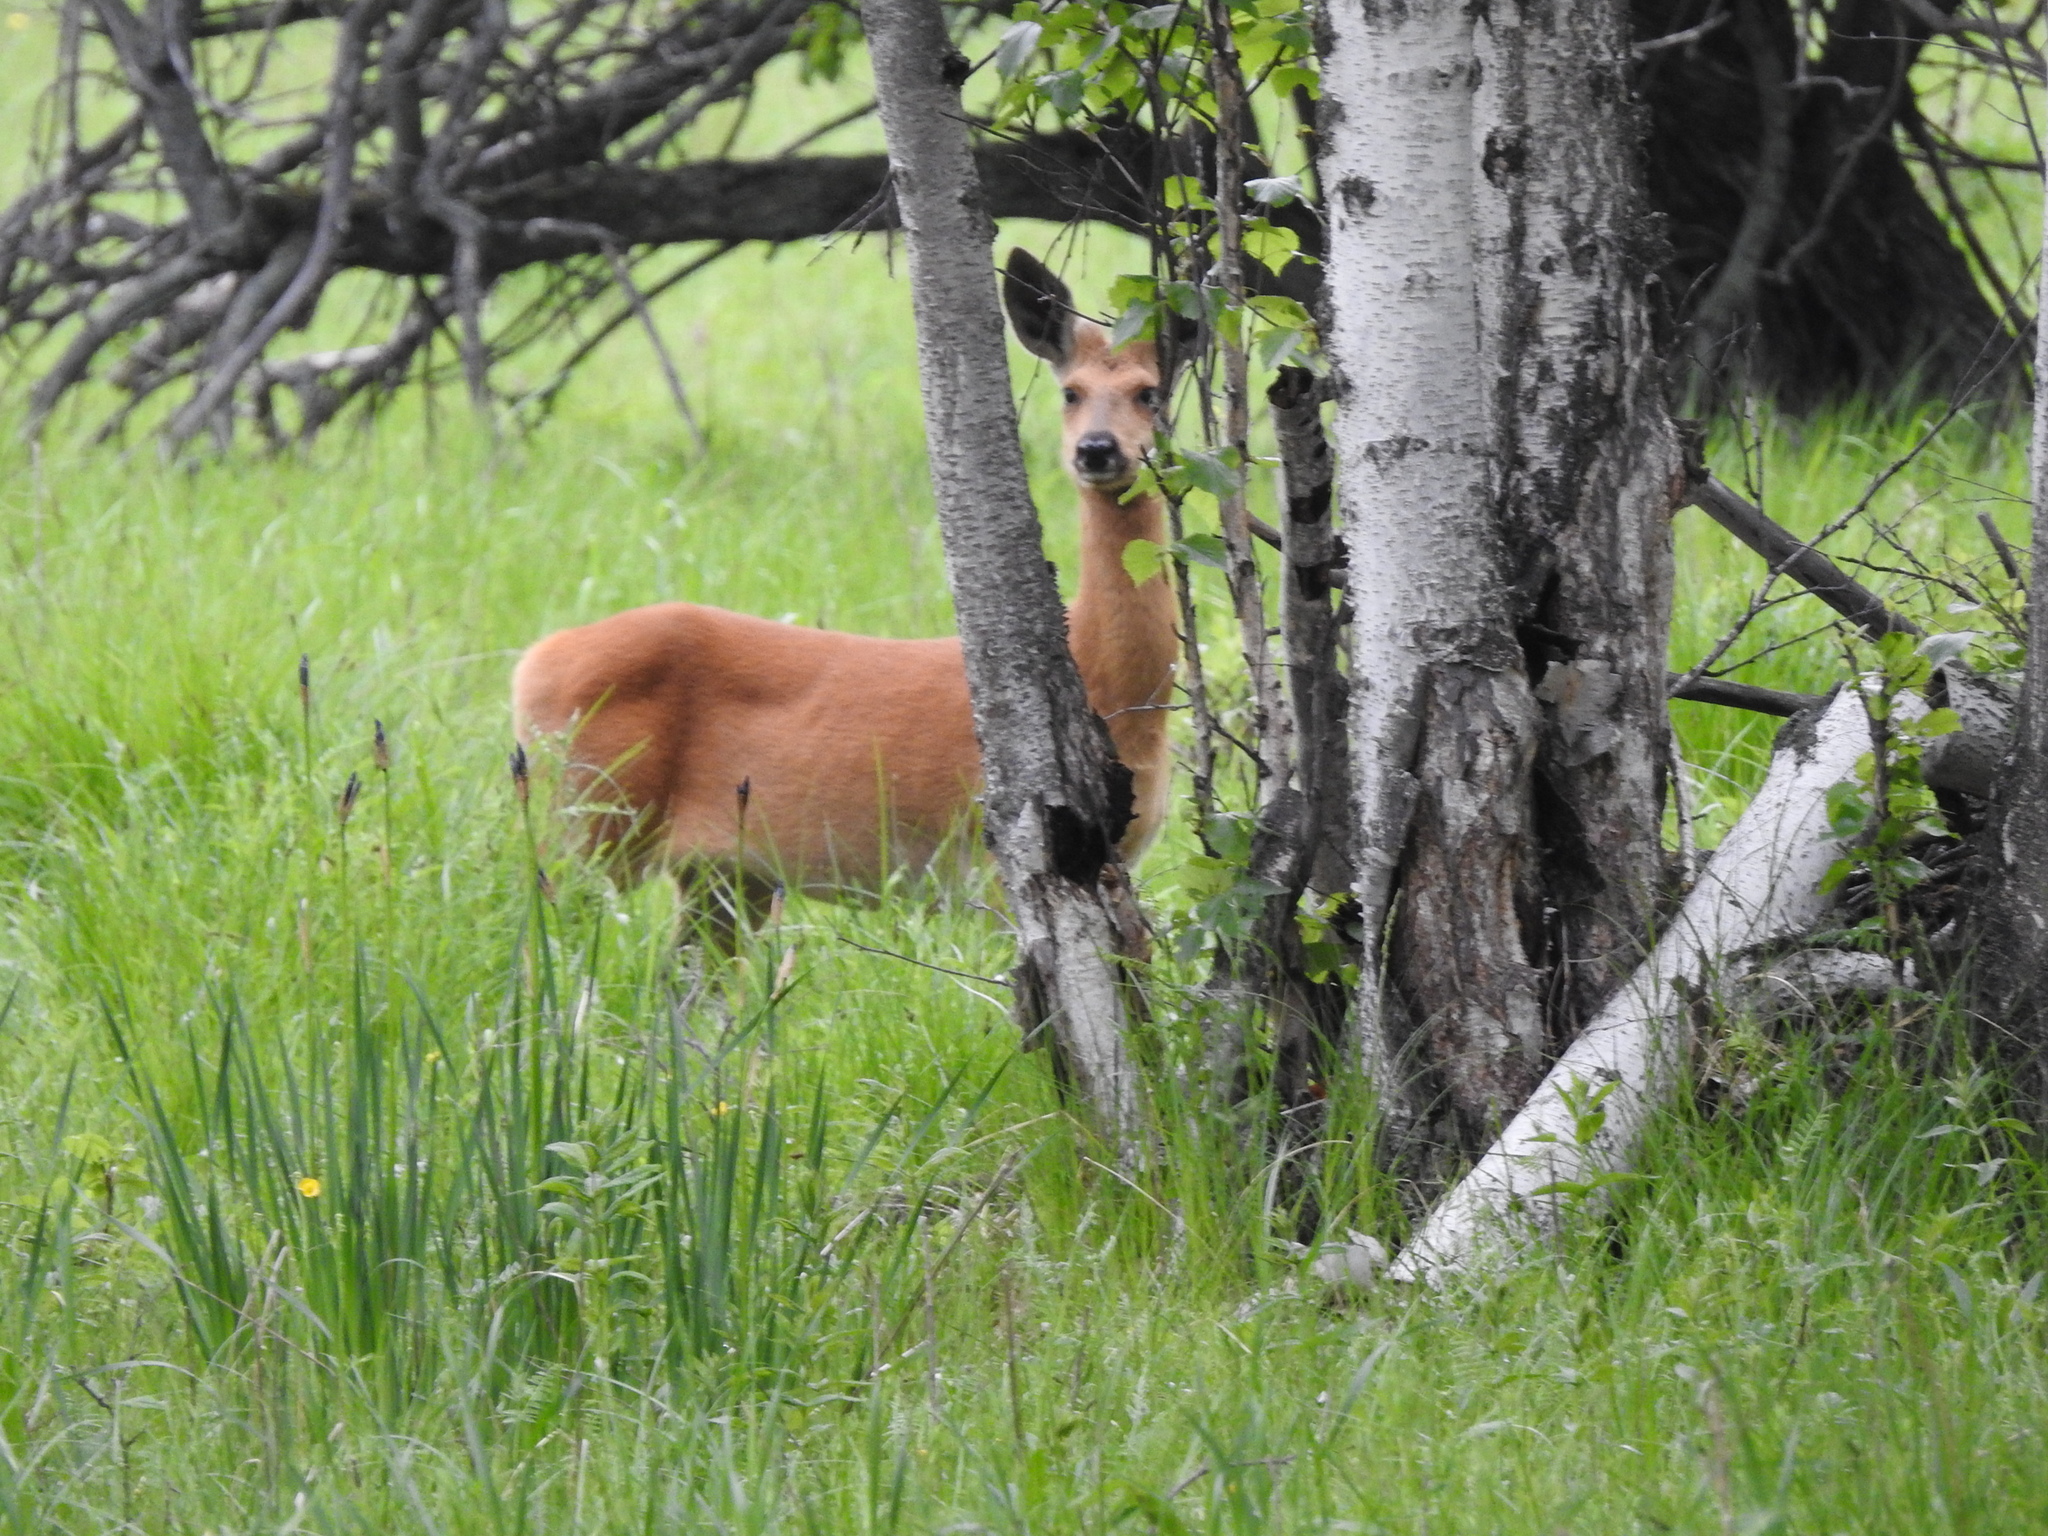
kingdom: Animalia
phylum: Chordata
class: Mammalia
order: Artiodactyla
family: Cervidae
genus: Capreolus
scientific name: Capreolus pygargus
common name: Siberian roe
